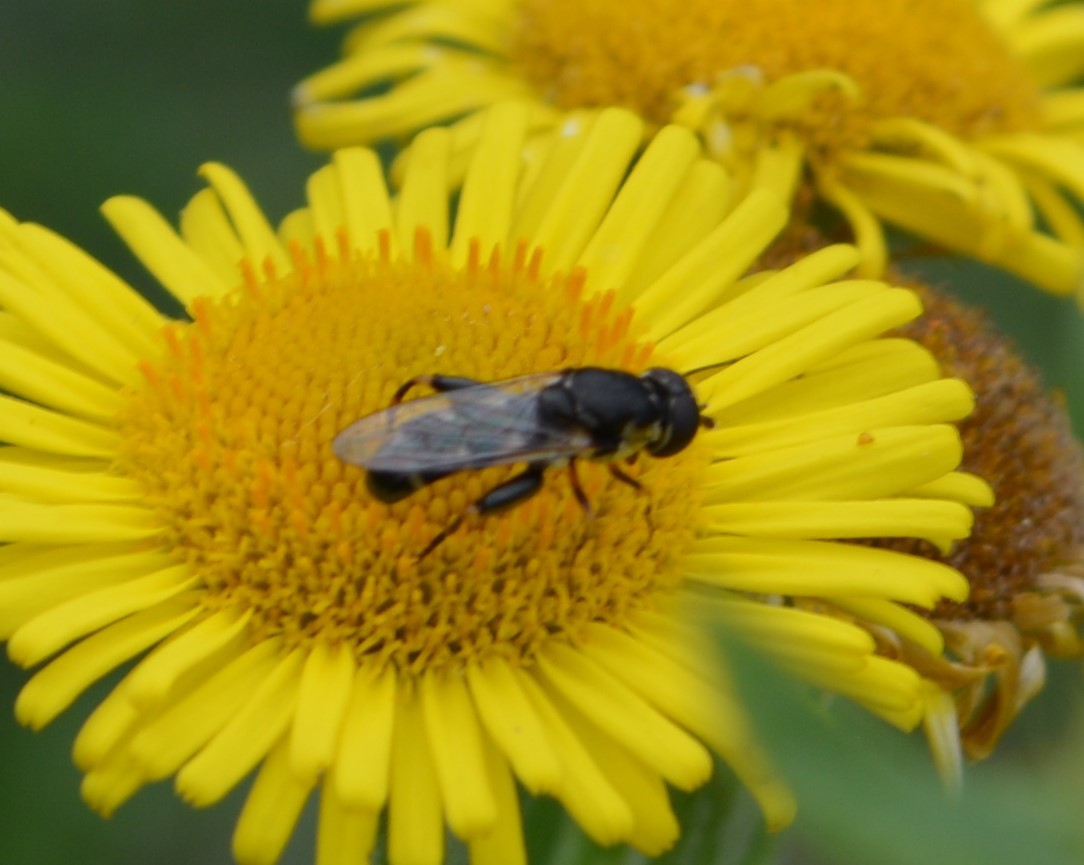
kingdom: Animalia
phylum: Arthropoda
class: Insecta
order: Diptera
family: Syrphidae
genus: Syritta
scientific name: Syritta pipiens
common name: Hover fly
